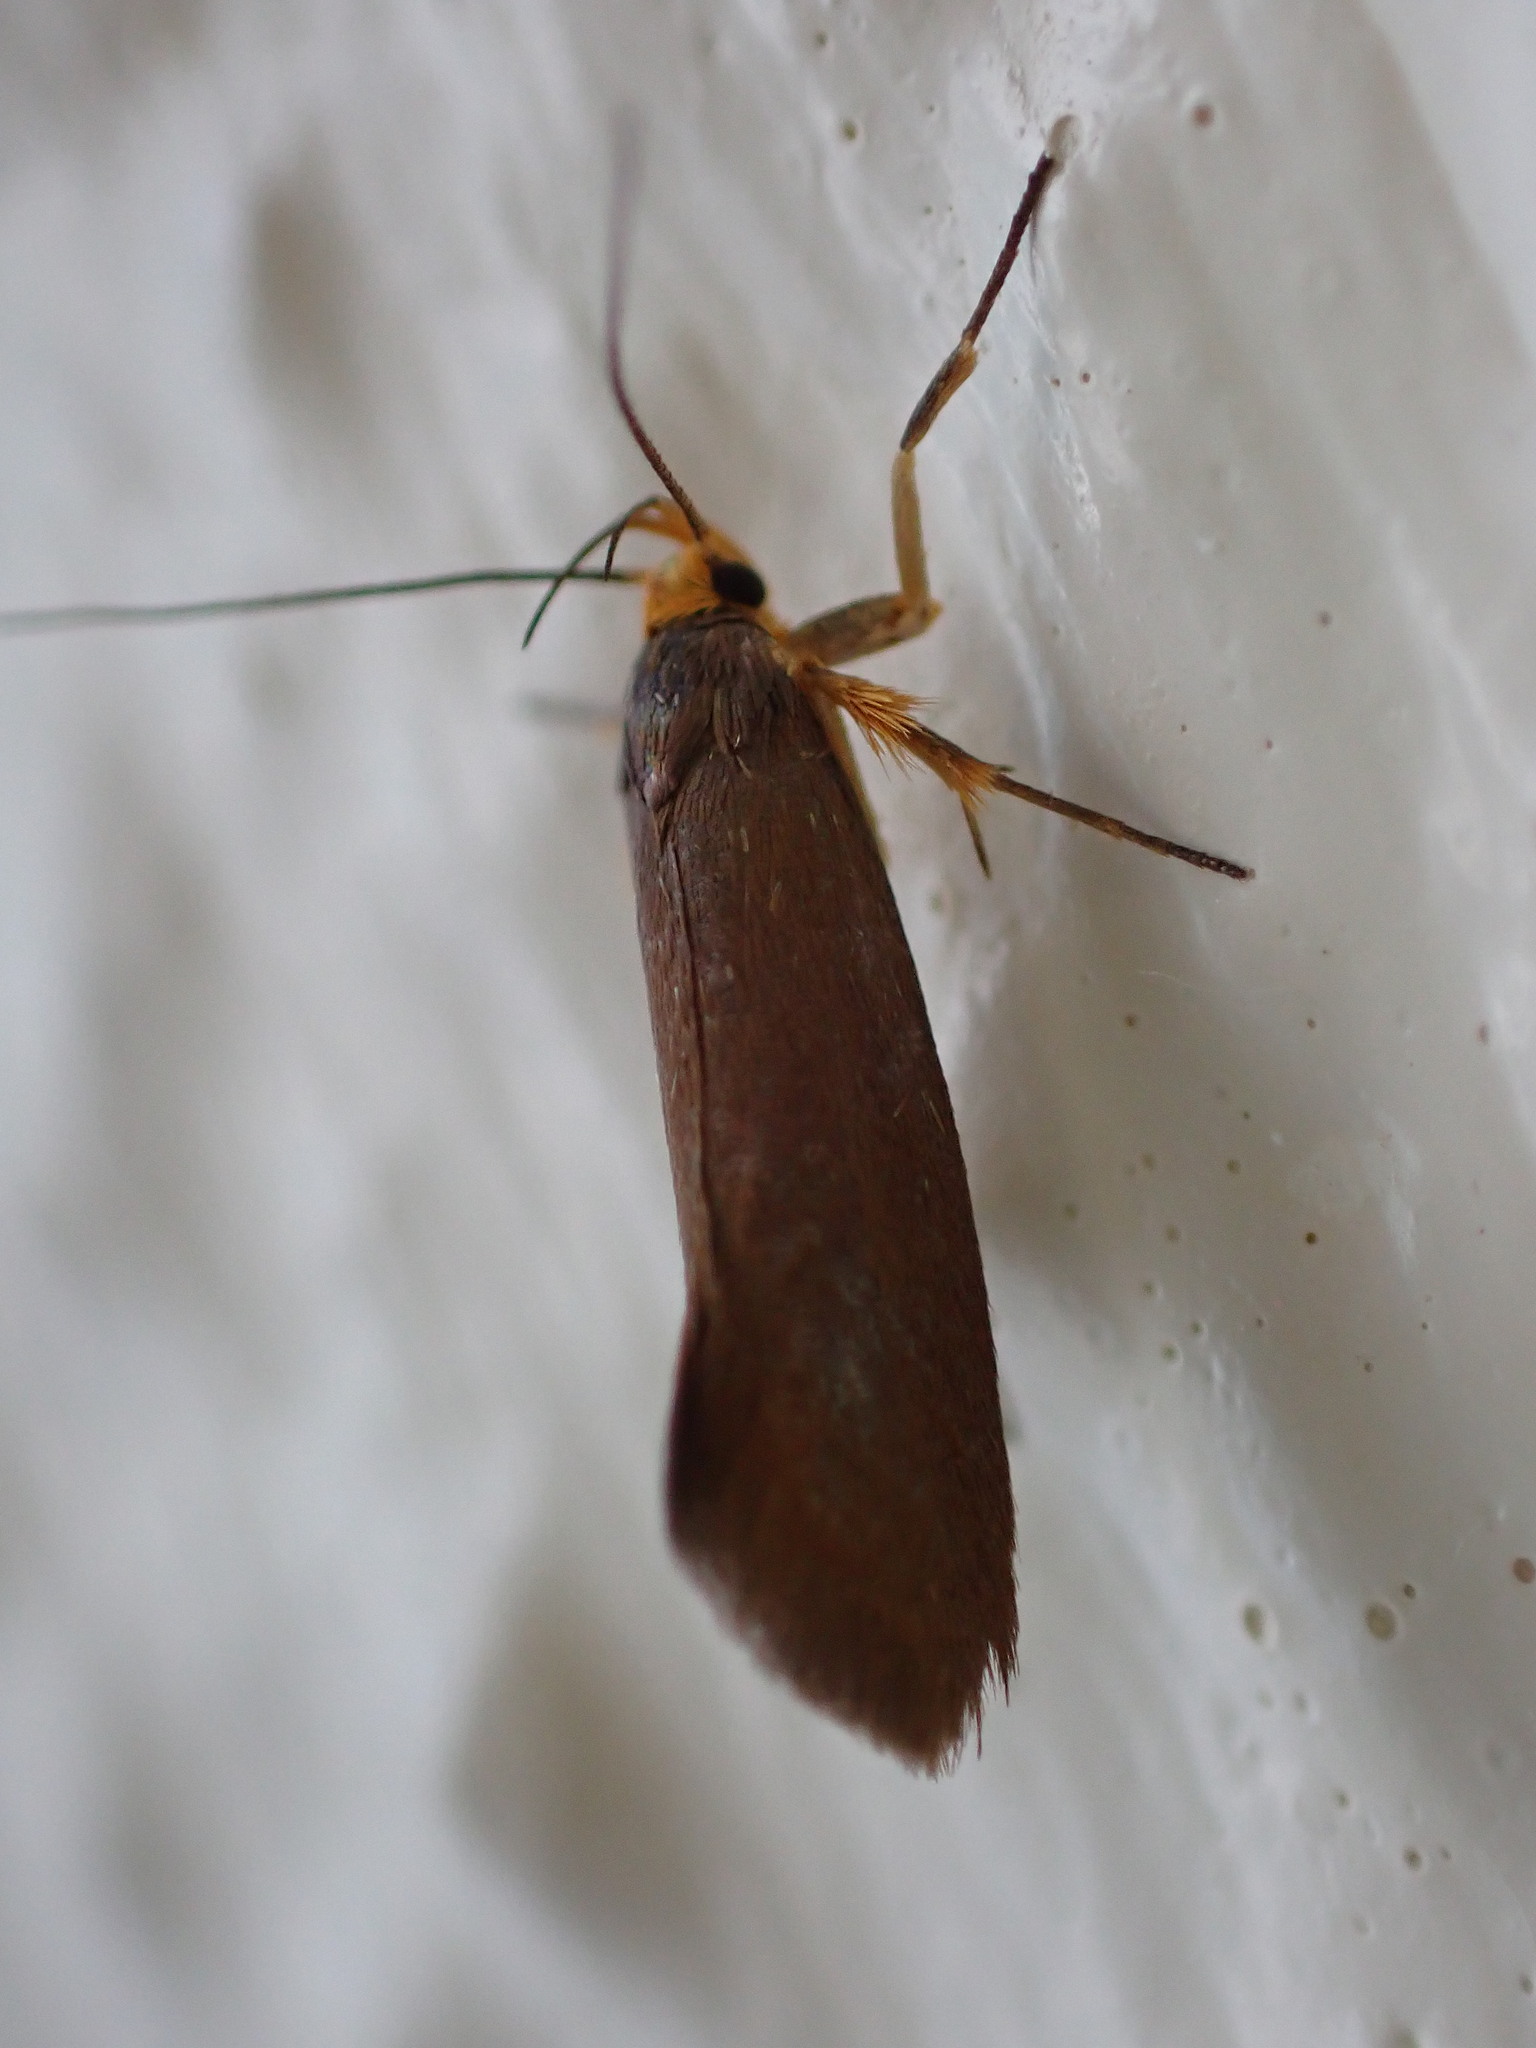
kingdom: Animalia
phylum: Arthropoda
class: Insecta
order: Lepidoptera
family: Oecophoridae
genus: Borkhausenia
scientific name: Borkhausenia Crassa unitella
